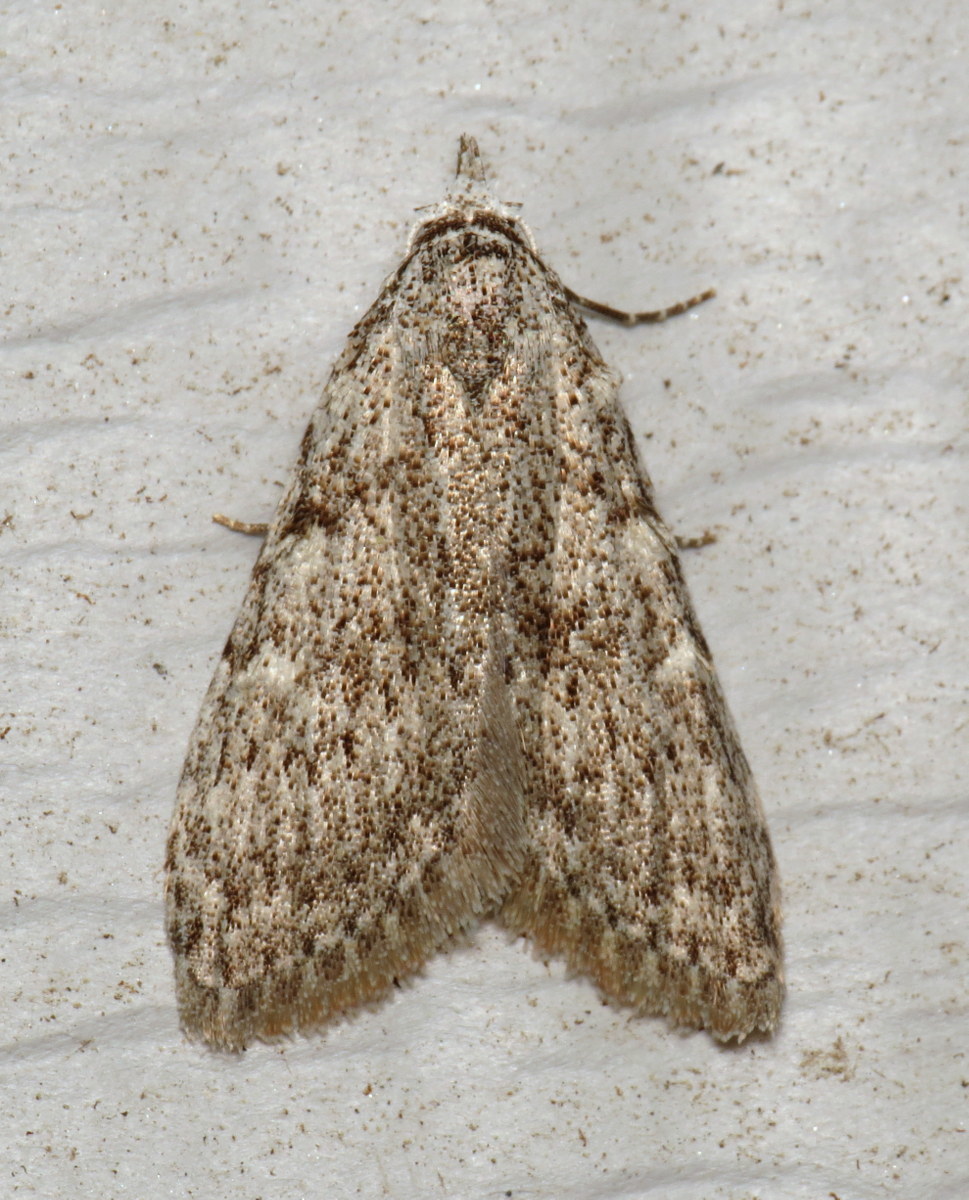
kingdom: Animalia
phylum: Arthropoda
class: Insecta
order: Lepidoptera
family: Nolidae
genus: Nola
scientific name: Nola clethrae
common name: Sweet pepperbush nola moth
